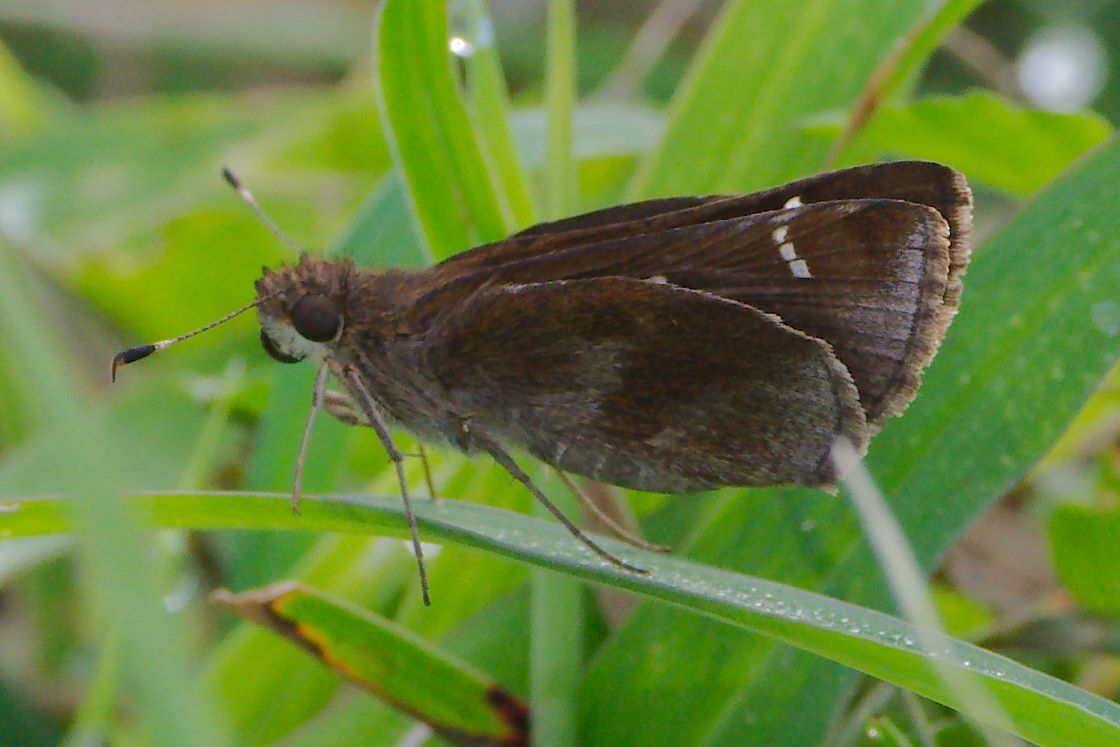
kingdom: Animalia
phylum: Arthropoda
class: Insecta
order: Lepidoptera
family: Hesperiidae
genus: Lerema
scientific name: Lerema accius
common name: Clouded skipper
